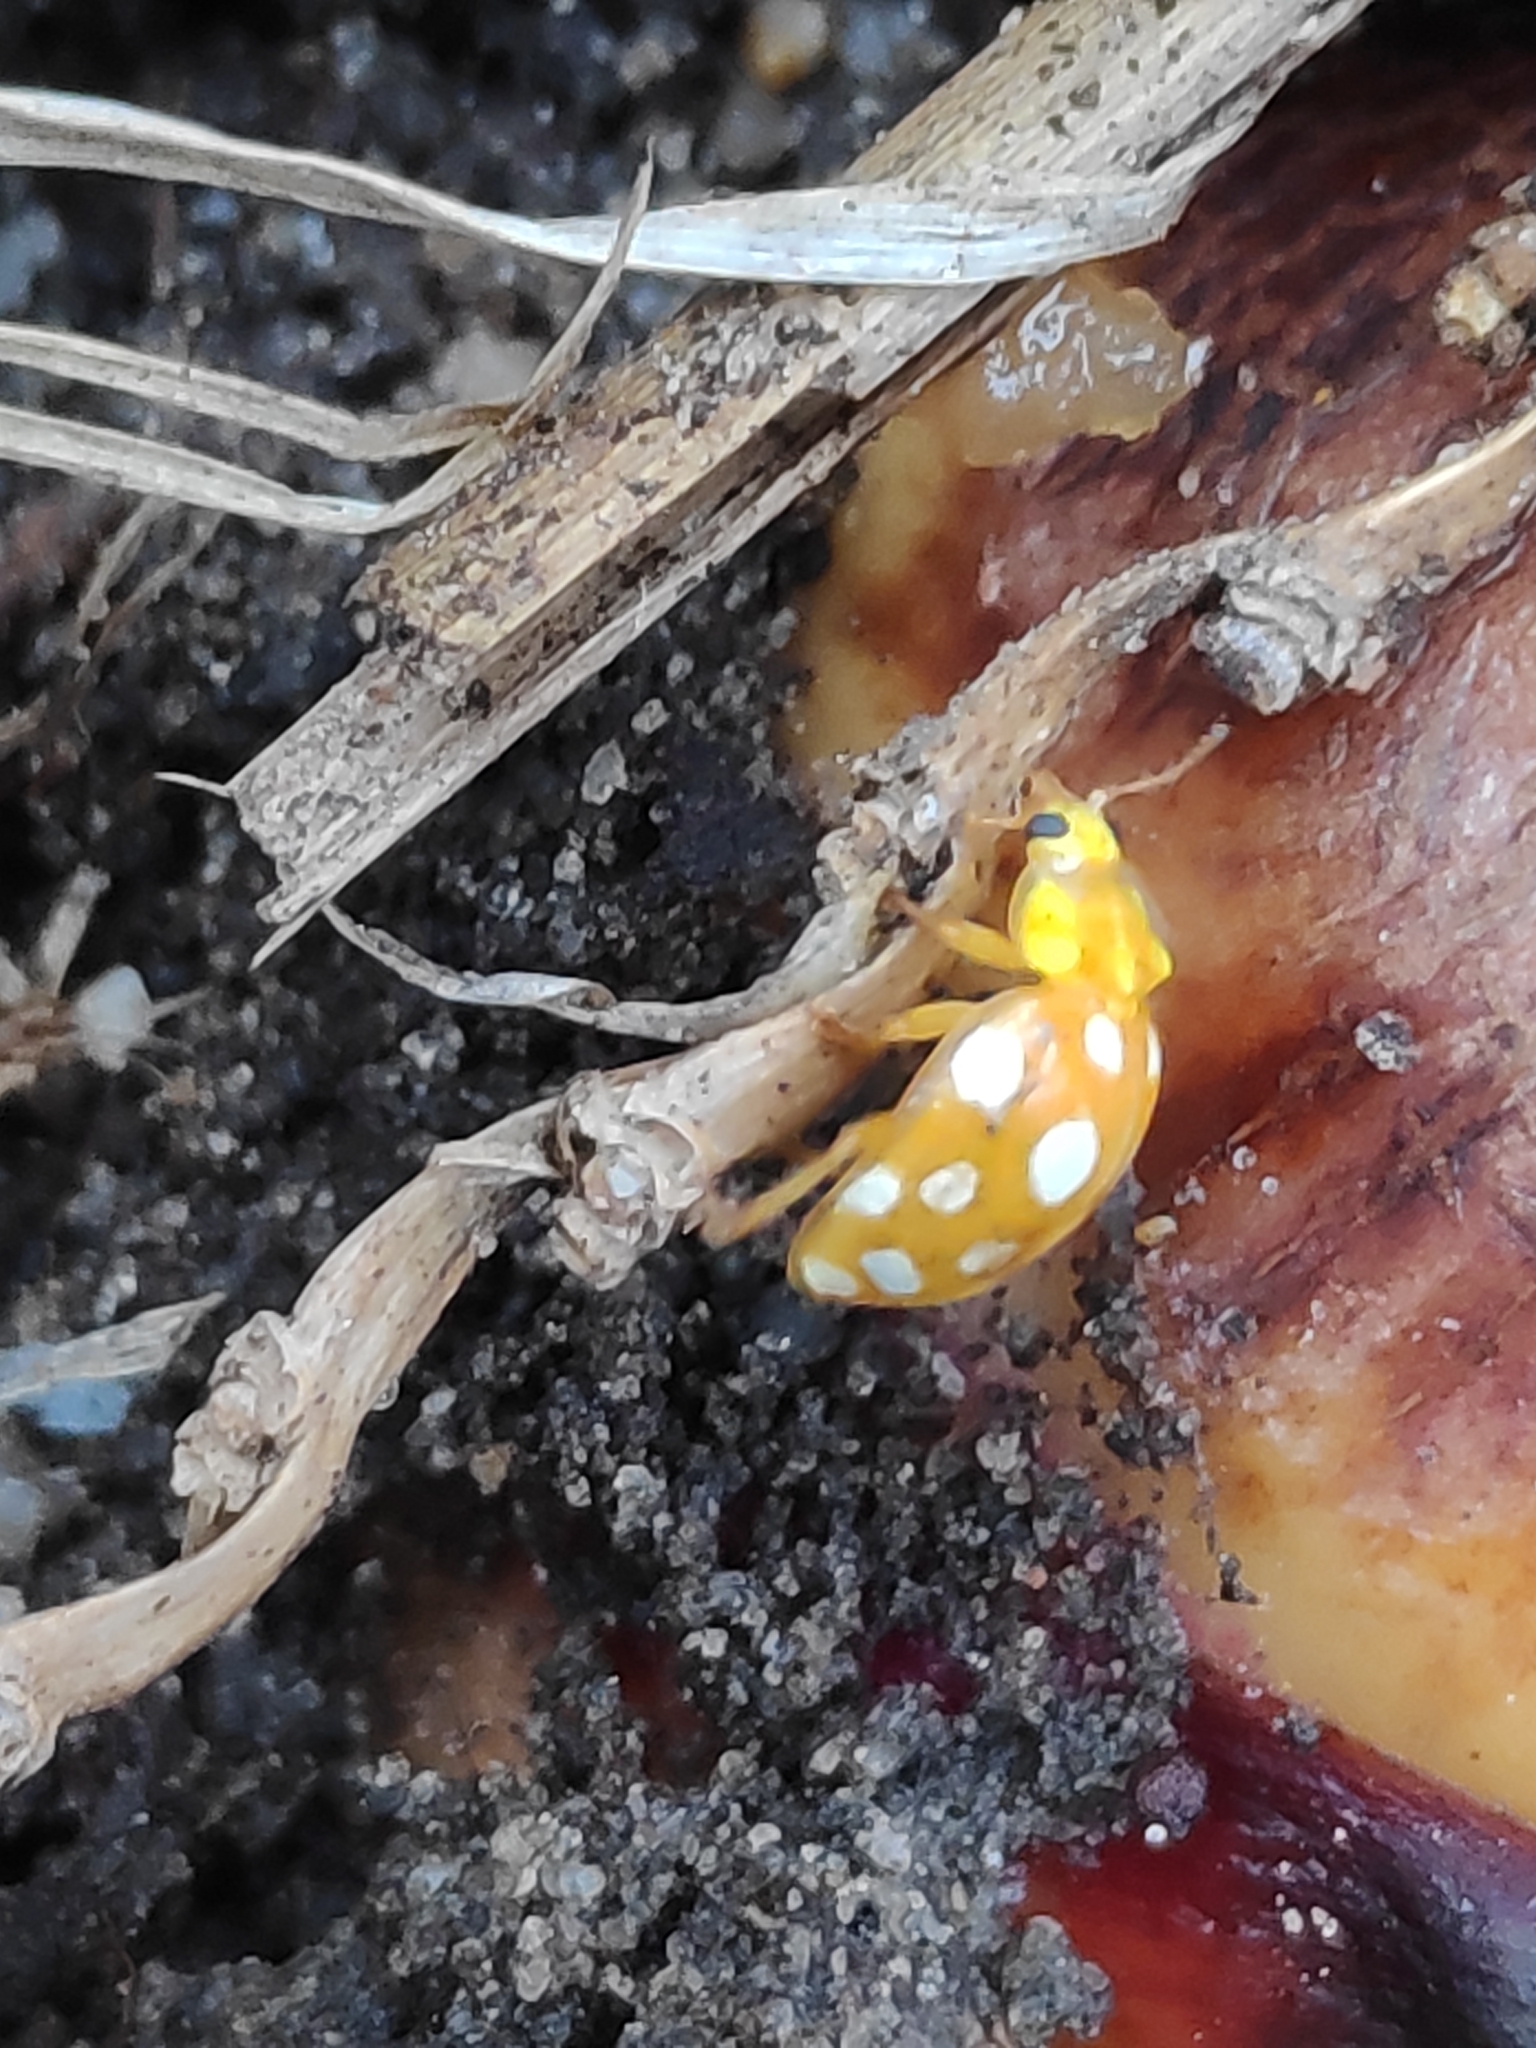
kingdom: Animalia
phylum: Arthropoda
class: Insecta
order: Coleoptera
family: Coccinellidae
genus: Halyzia
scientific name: Halyzia sedecimguttata
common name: Orange ladybird
